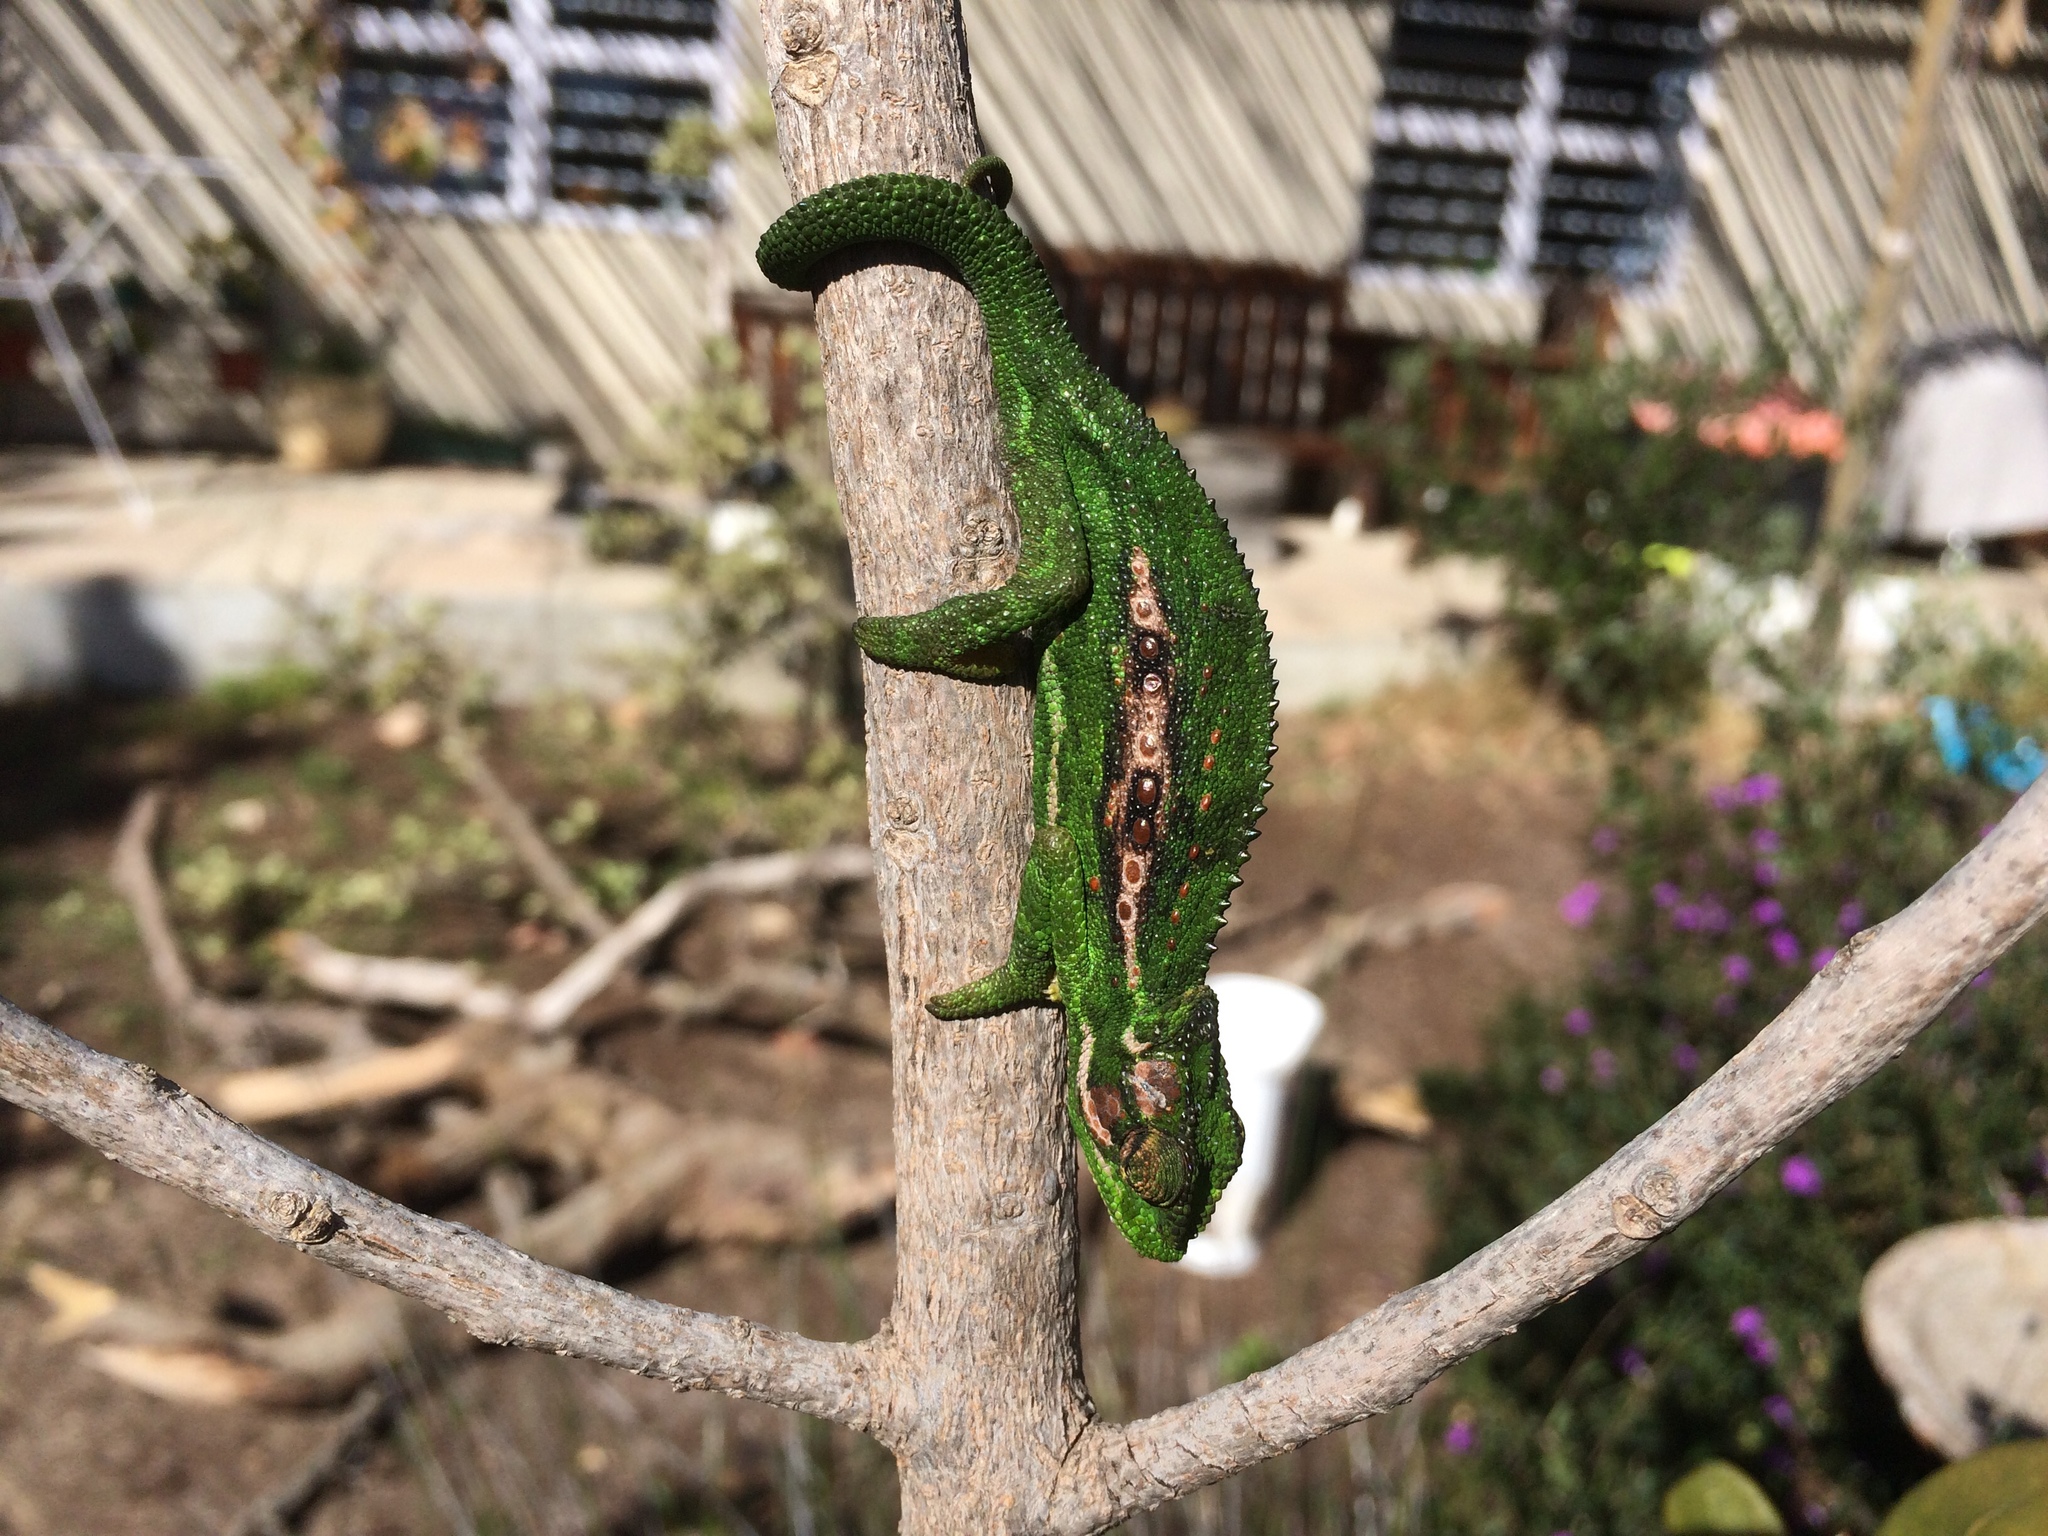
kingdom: Animalia
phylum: Chordata
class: Squamata
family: Chamaeleonidae
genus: Bradypodion
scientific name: Bradypodion pumilum
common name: Cape dwarf chameleon
